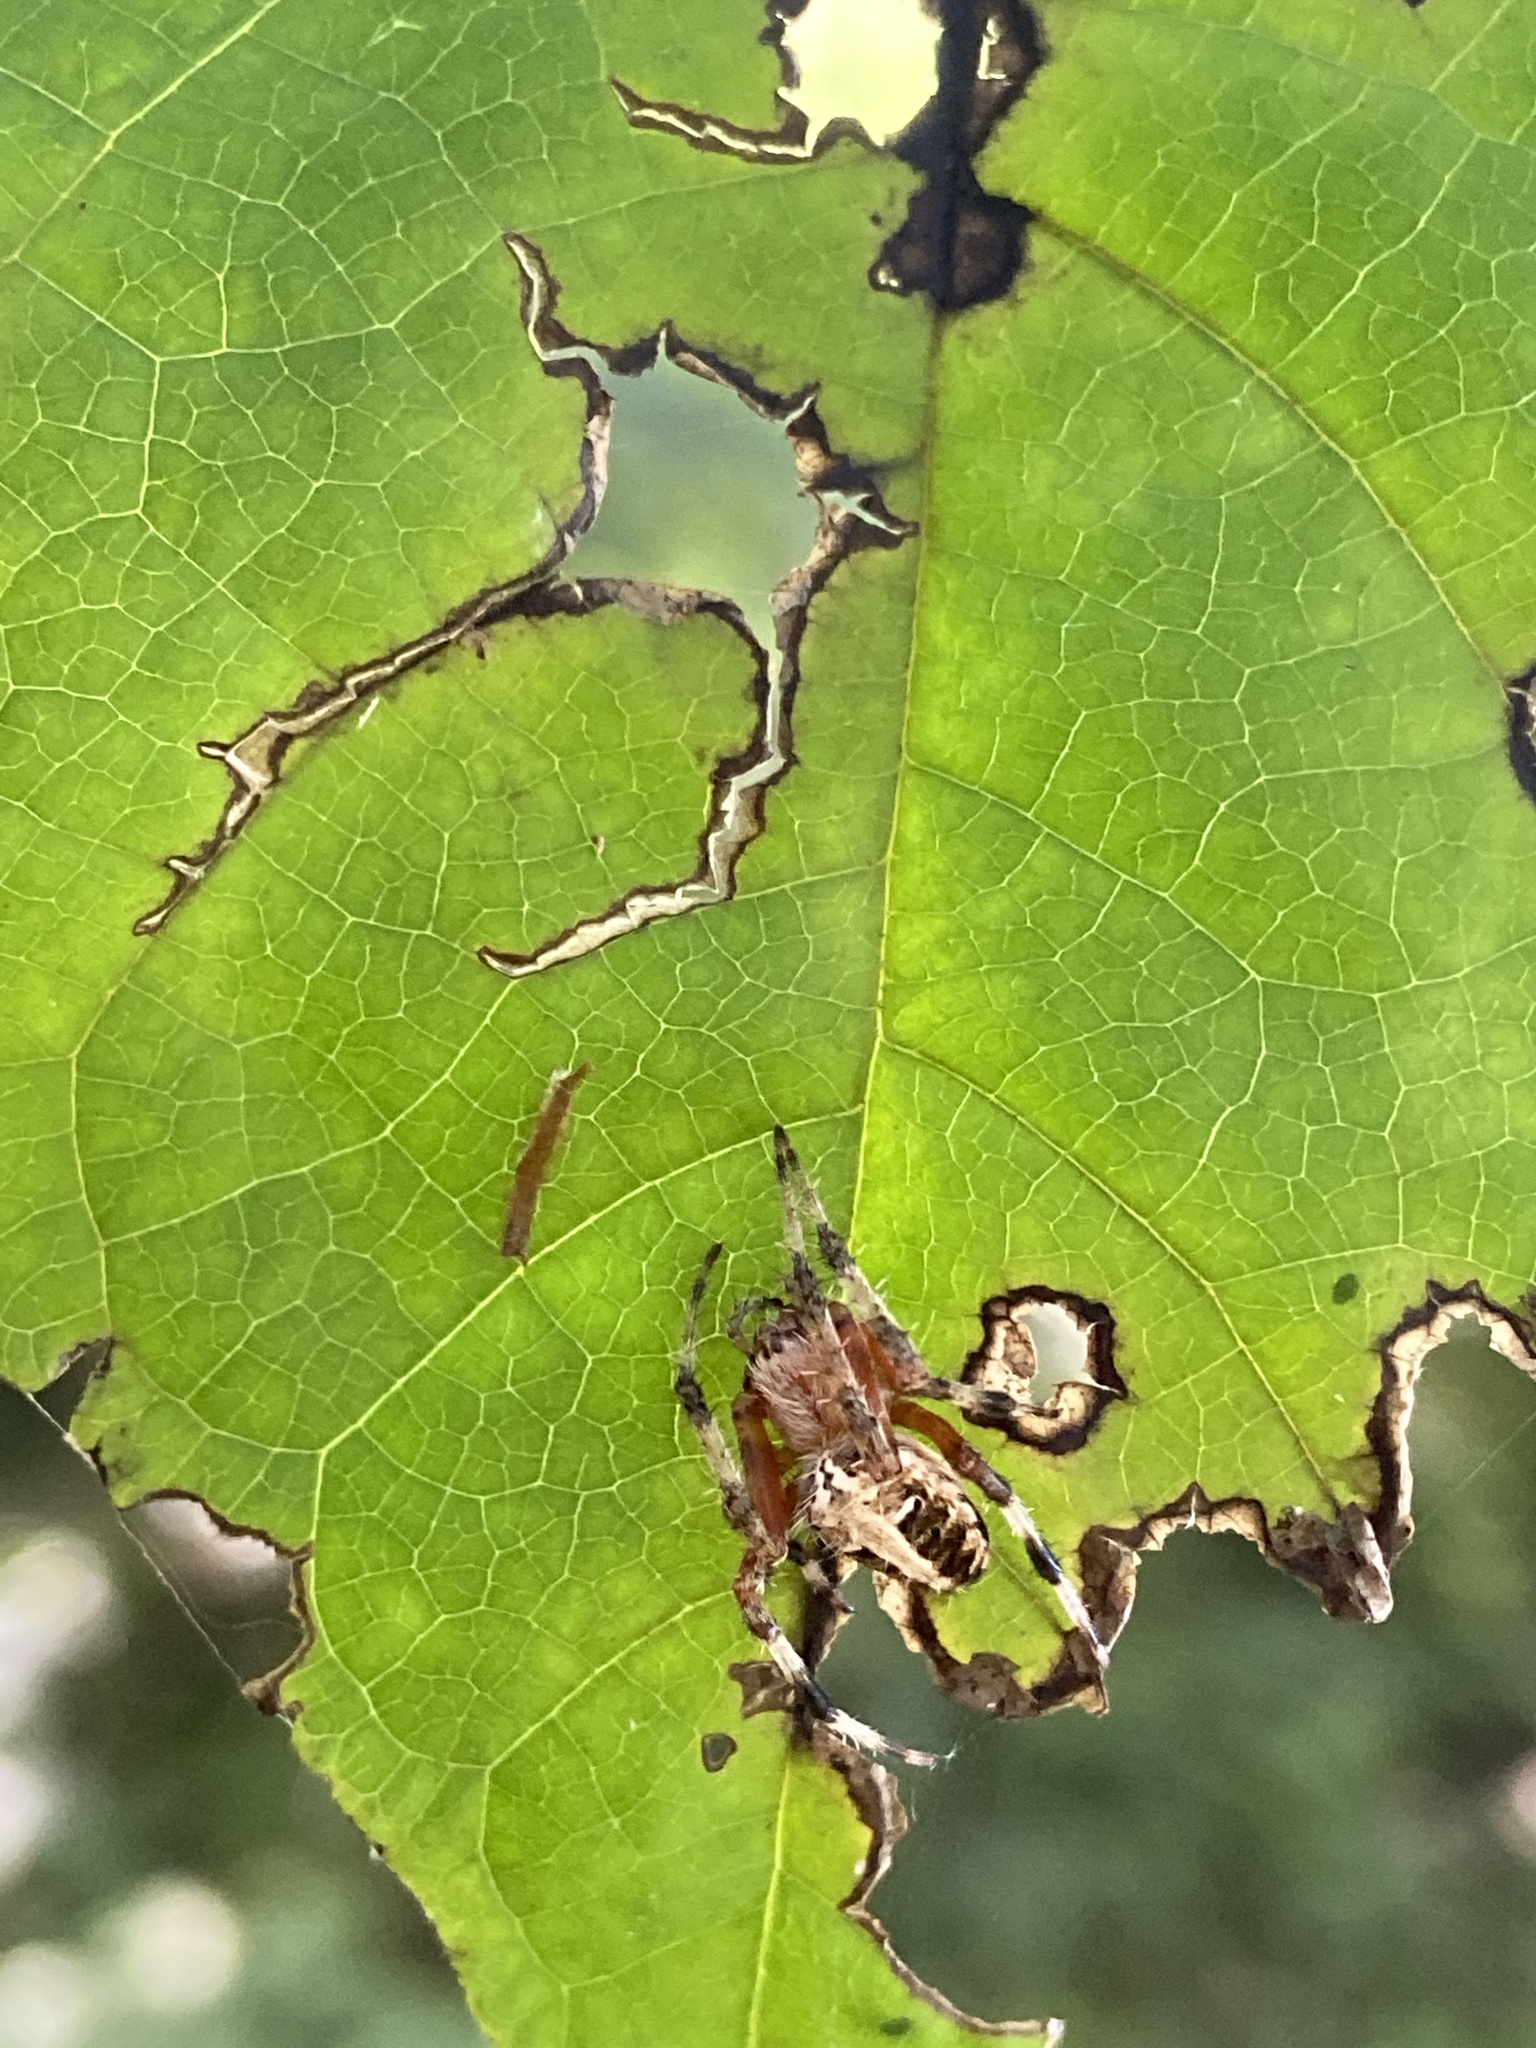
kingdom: Animalia
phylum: Arthropoda
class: Arachnida
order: Araneae
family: Araneidae
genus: Neoscona
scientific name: Neoscona domiciliorum
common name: Red-femured spotted orbweaver
